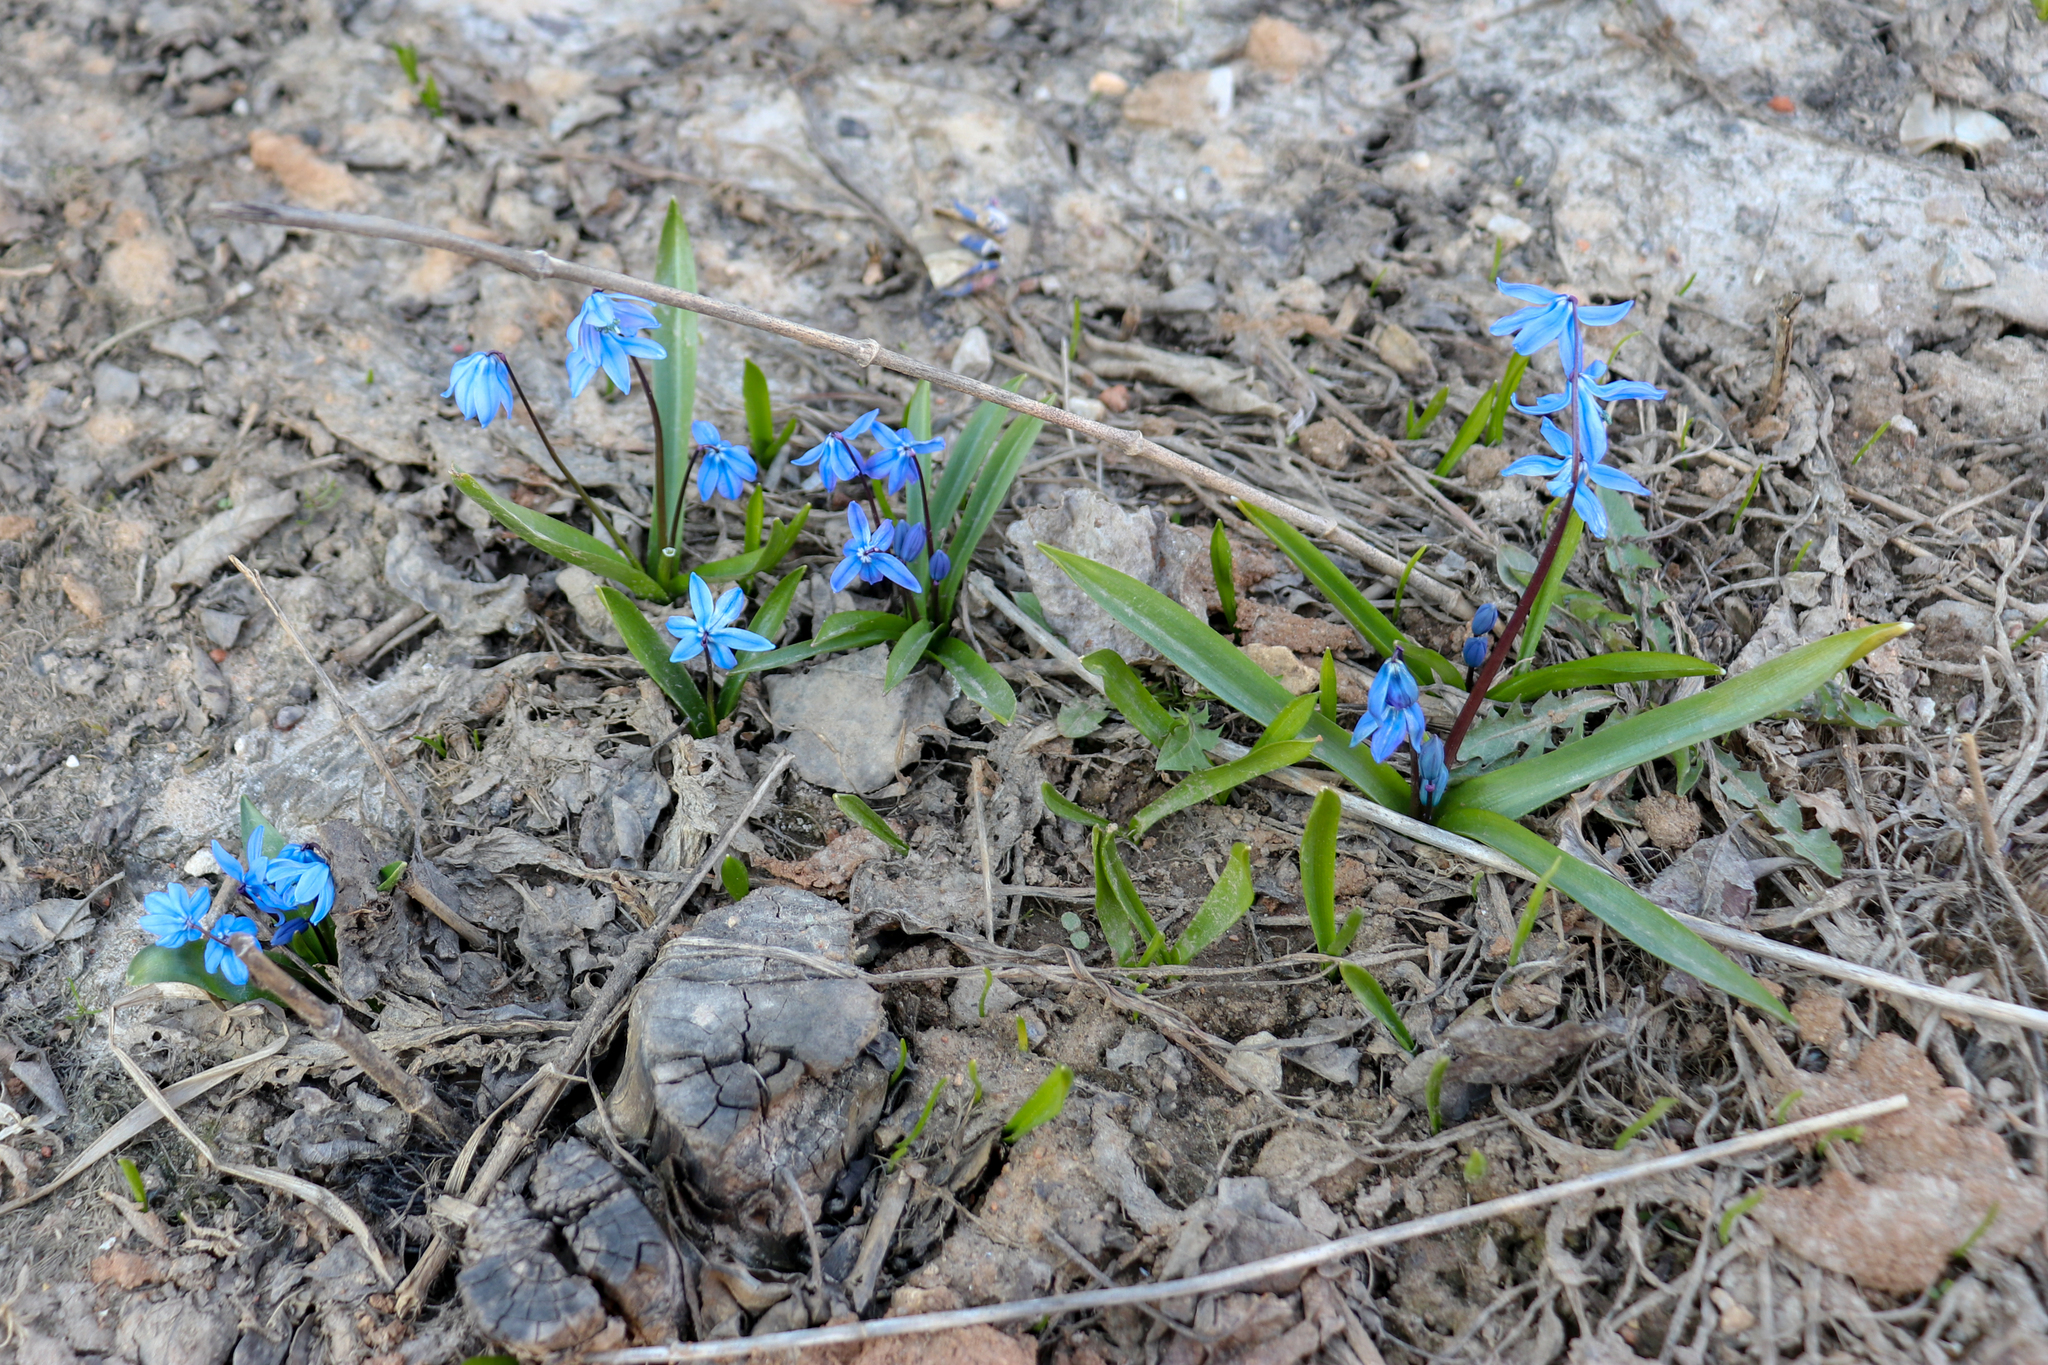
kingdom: Plantae
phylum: Tracheophyta
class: Liliopsida
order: Asparagales
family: Asparagaceae
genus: Scilla
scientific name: Scilla siberica
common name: Siberian squill
